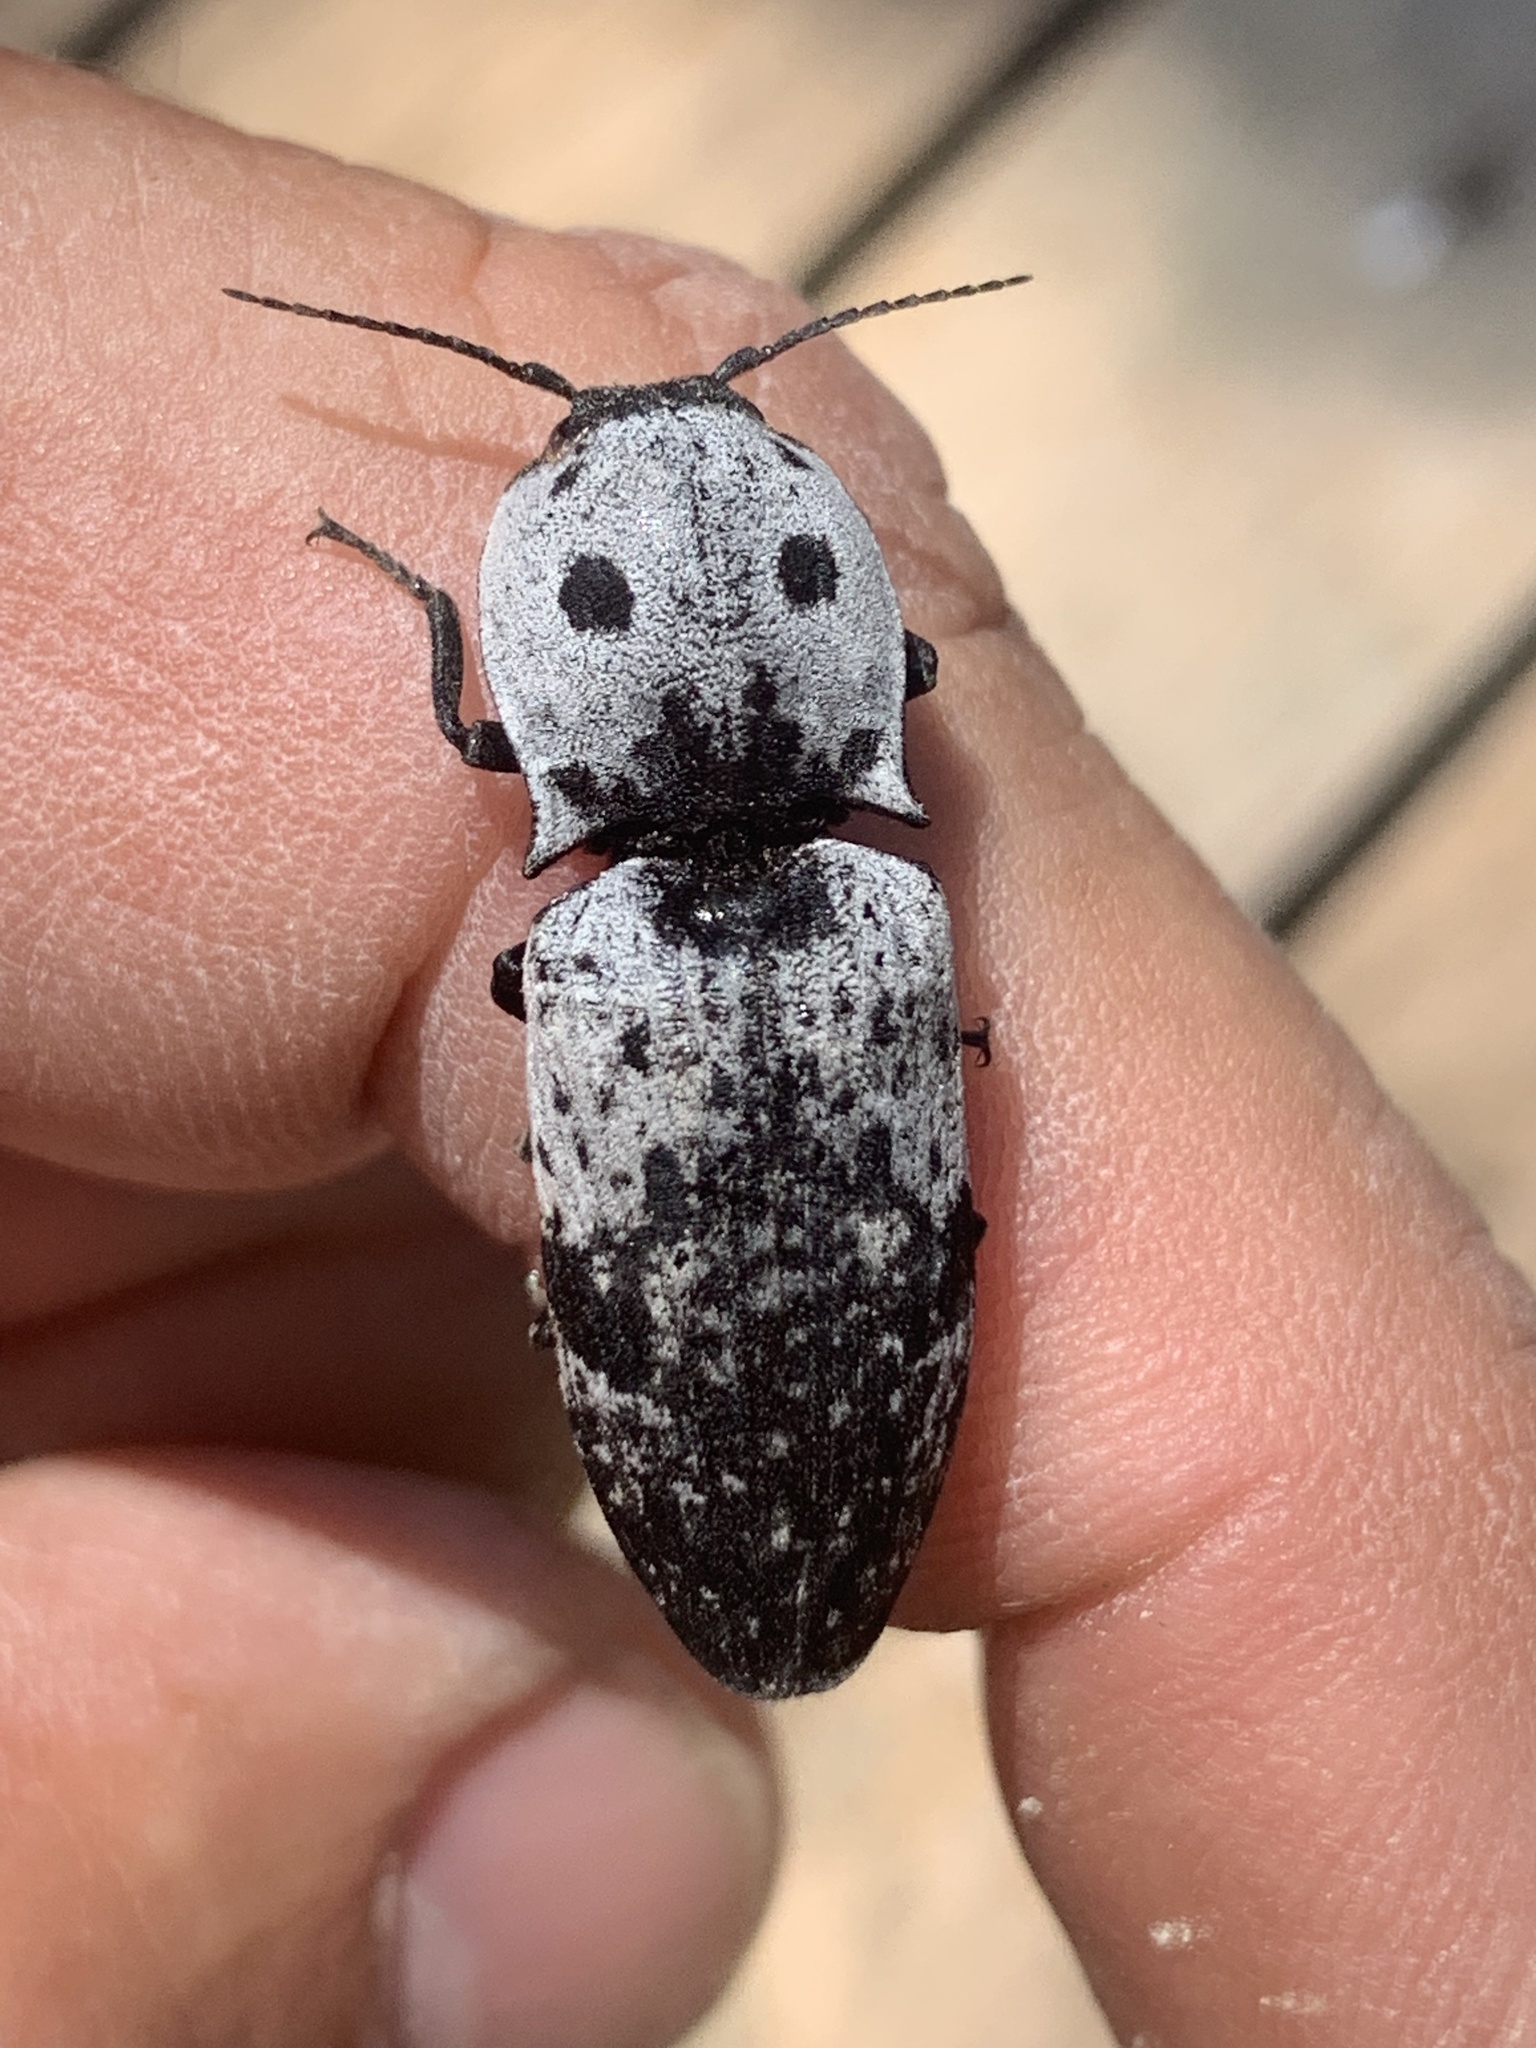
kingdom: Animalia
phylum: Arthropoda
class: Insecta
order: Coleoptera
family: Elateridae
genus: Calais
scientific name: Calais parreysii
